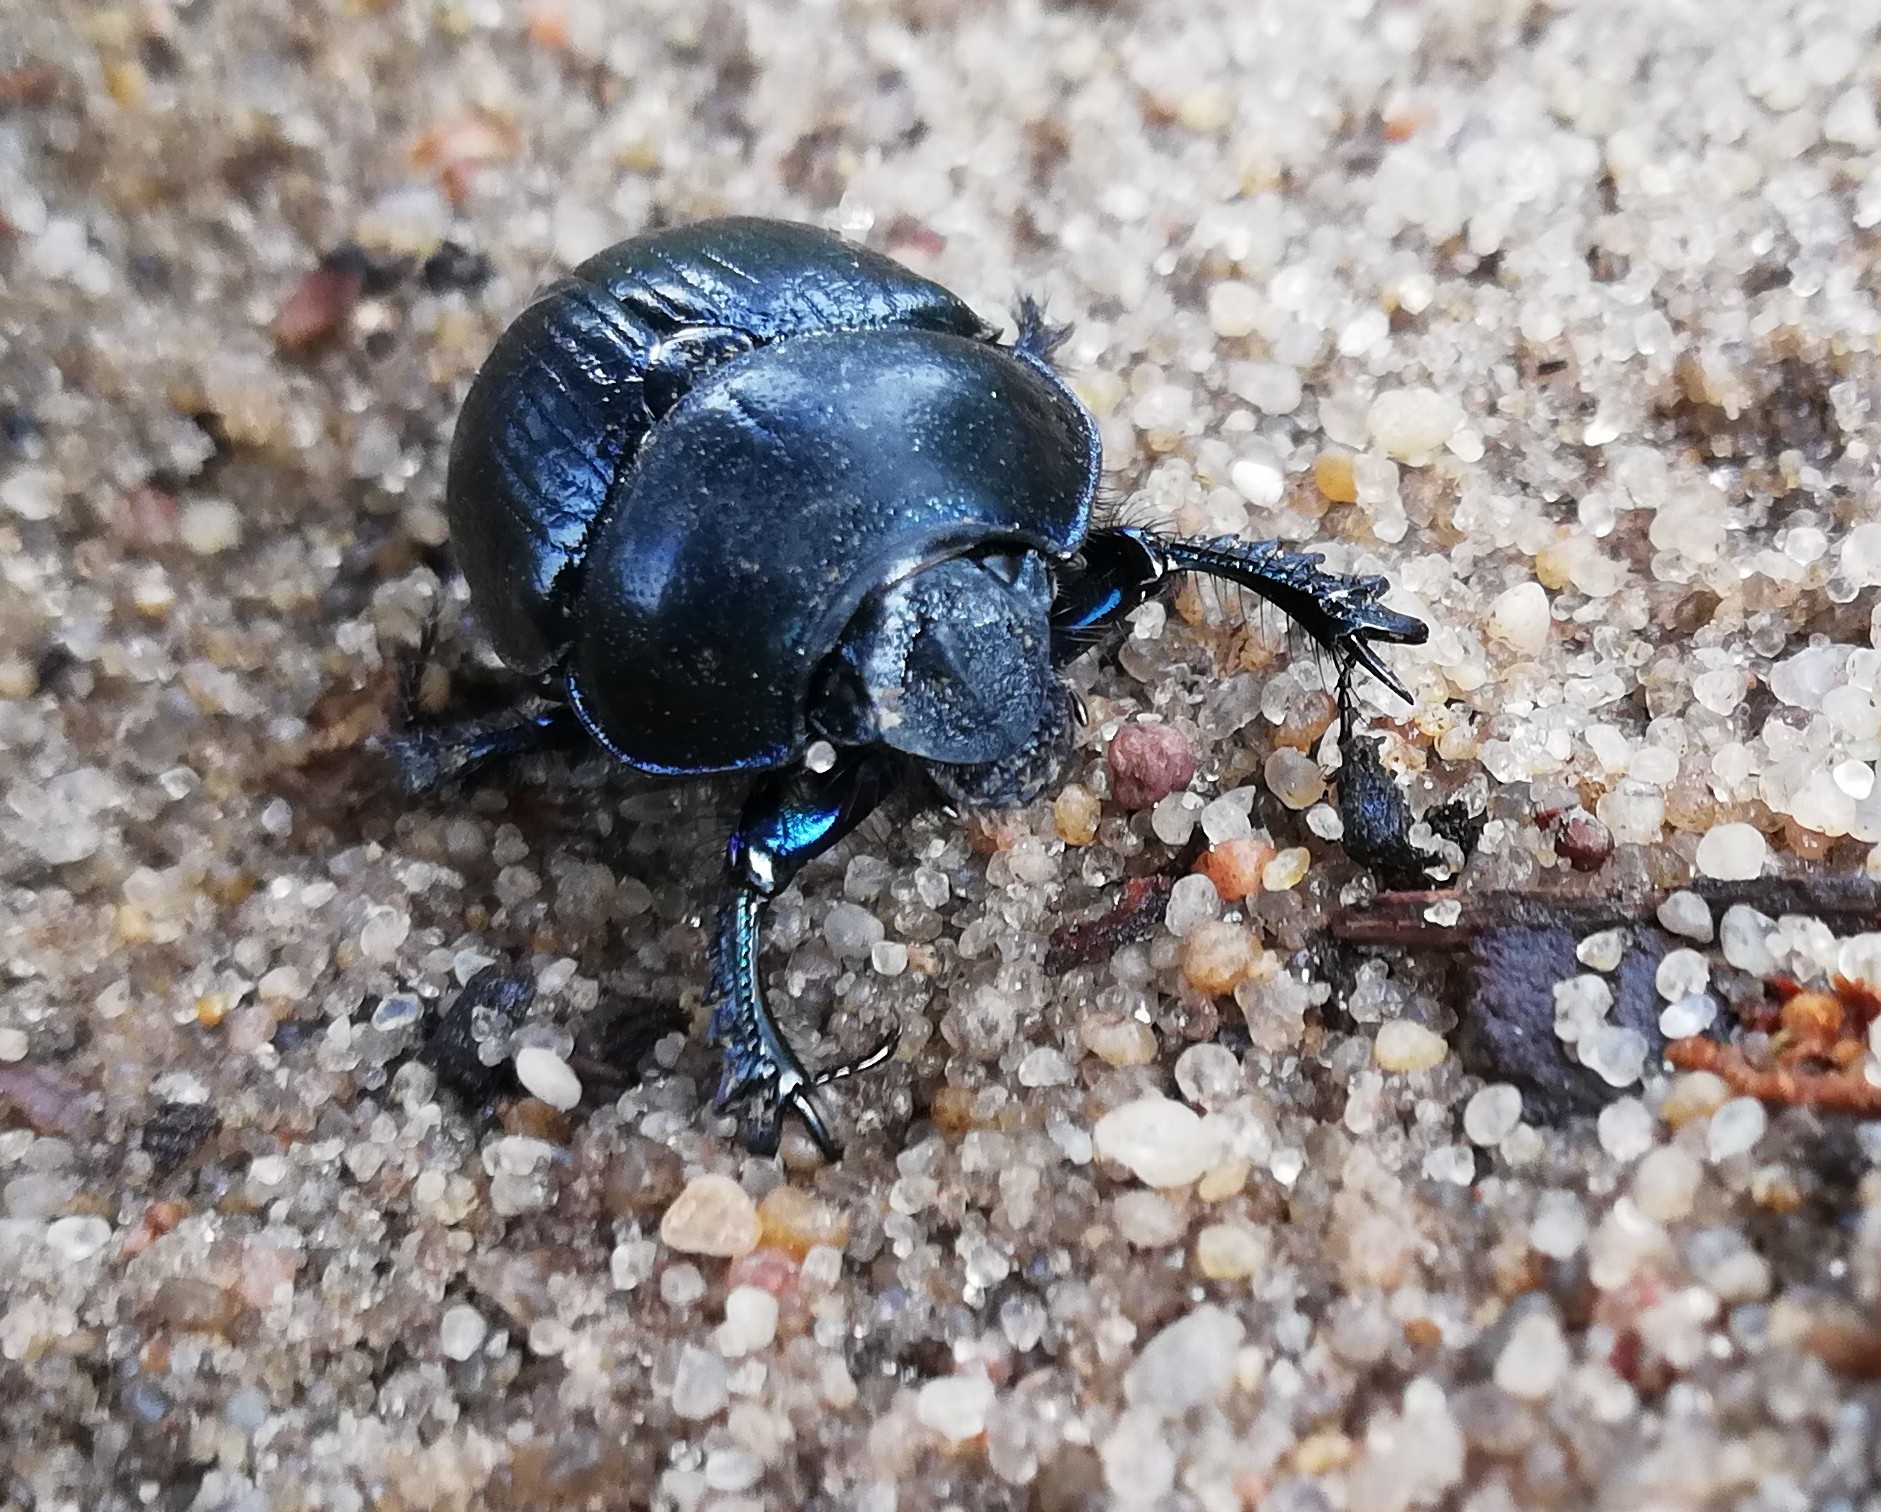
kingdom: Animalia
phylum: Arthropoda
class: Insecta
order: Coleoptera
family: Geotrupidae
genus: Anoplotrupes
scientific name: Anoplotrupes stercorosus
